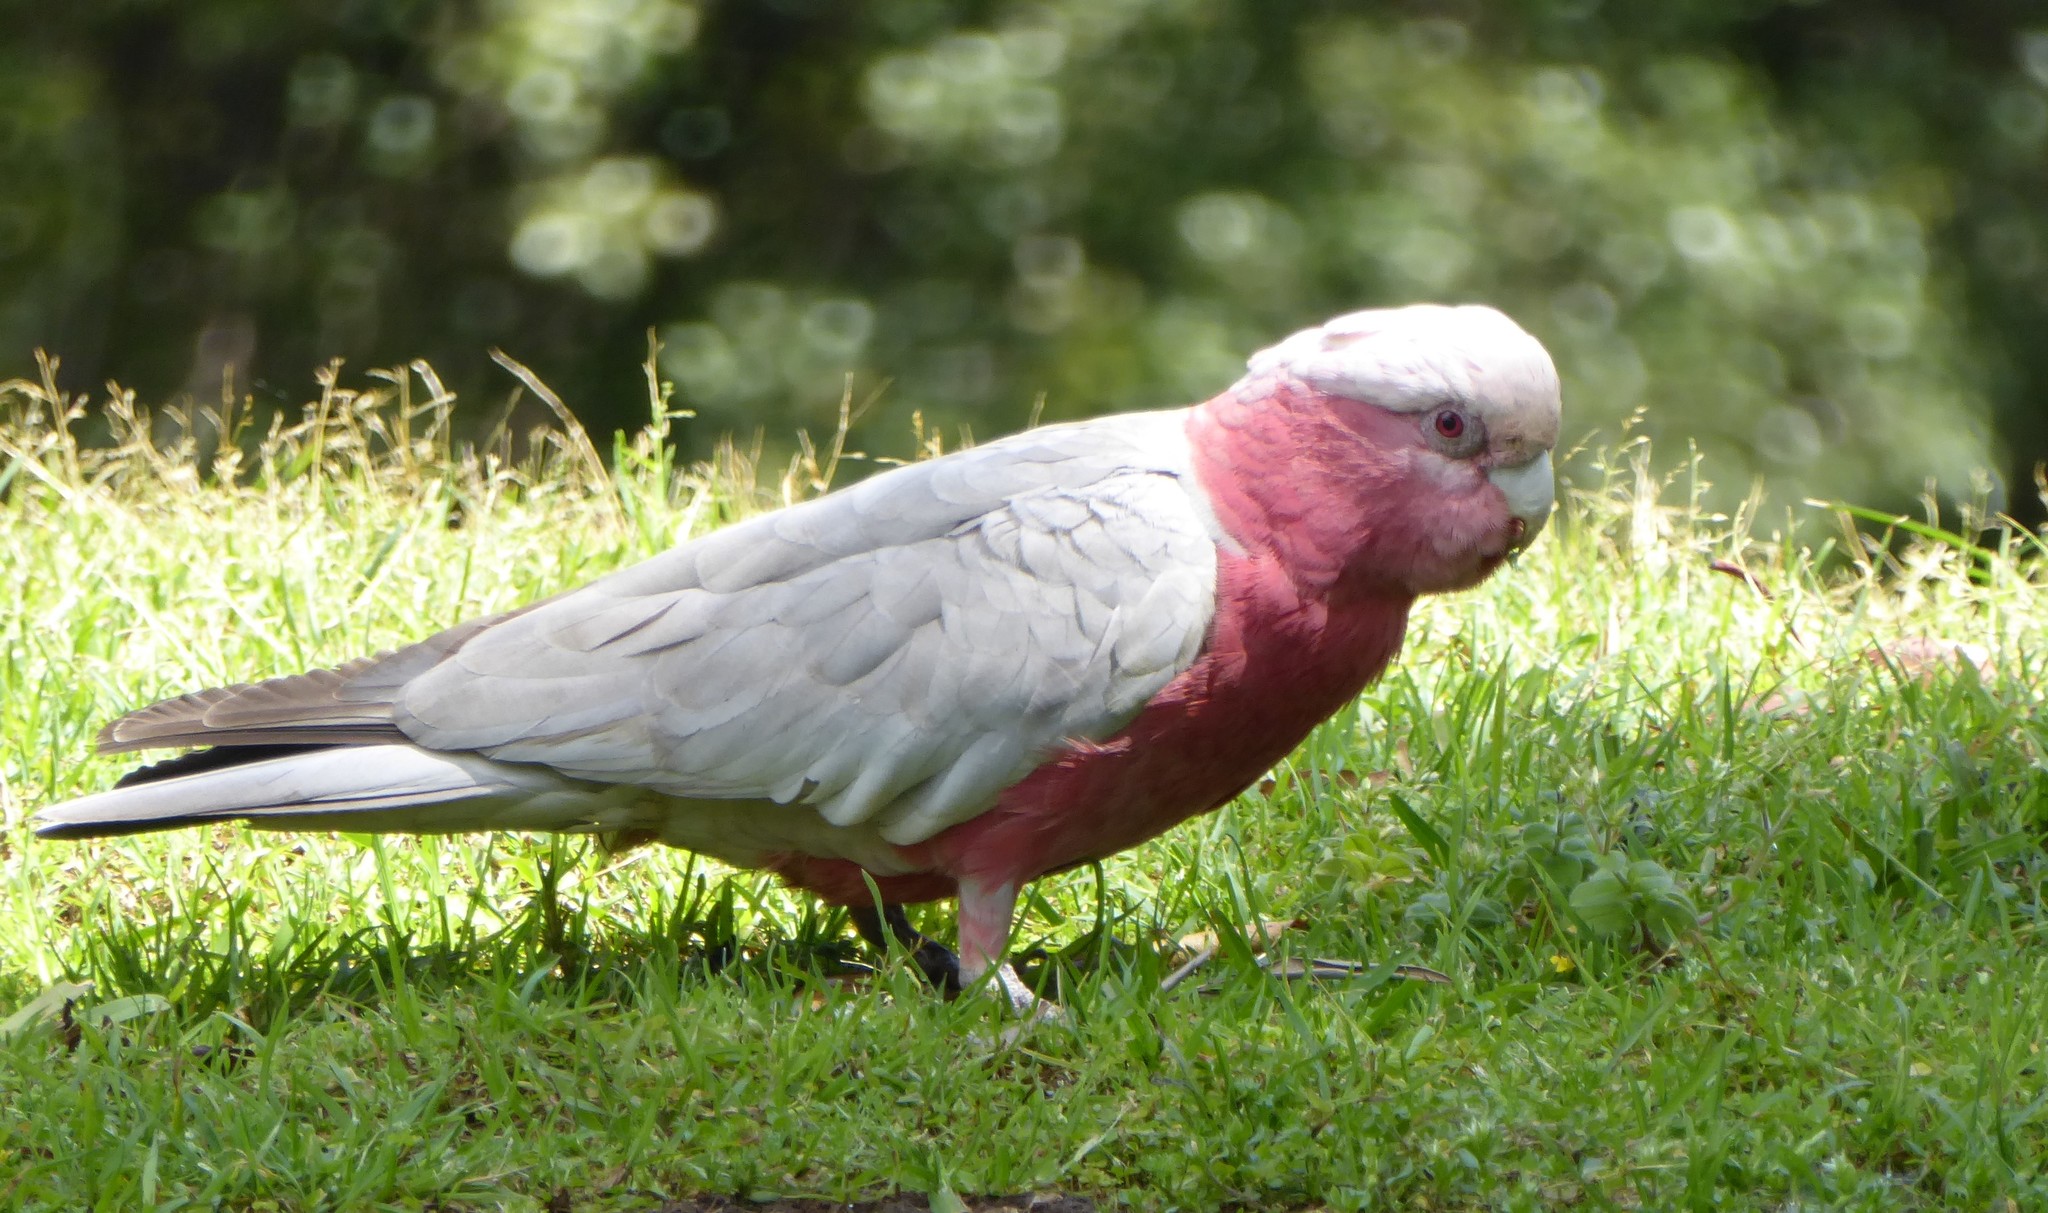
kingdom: Animalia
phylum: Chordata
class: Aves
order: Psittaciformes
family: Psittacidae
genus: Eolophus
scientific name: Eolophus roseicapilla
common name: Galah
